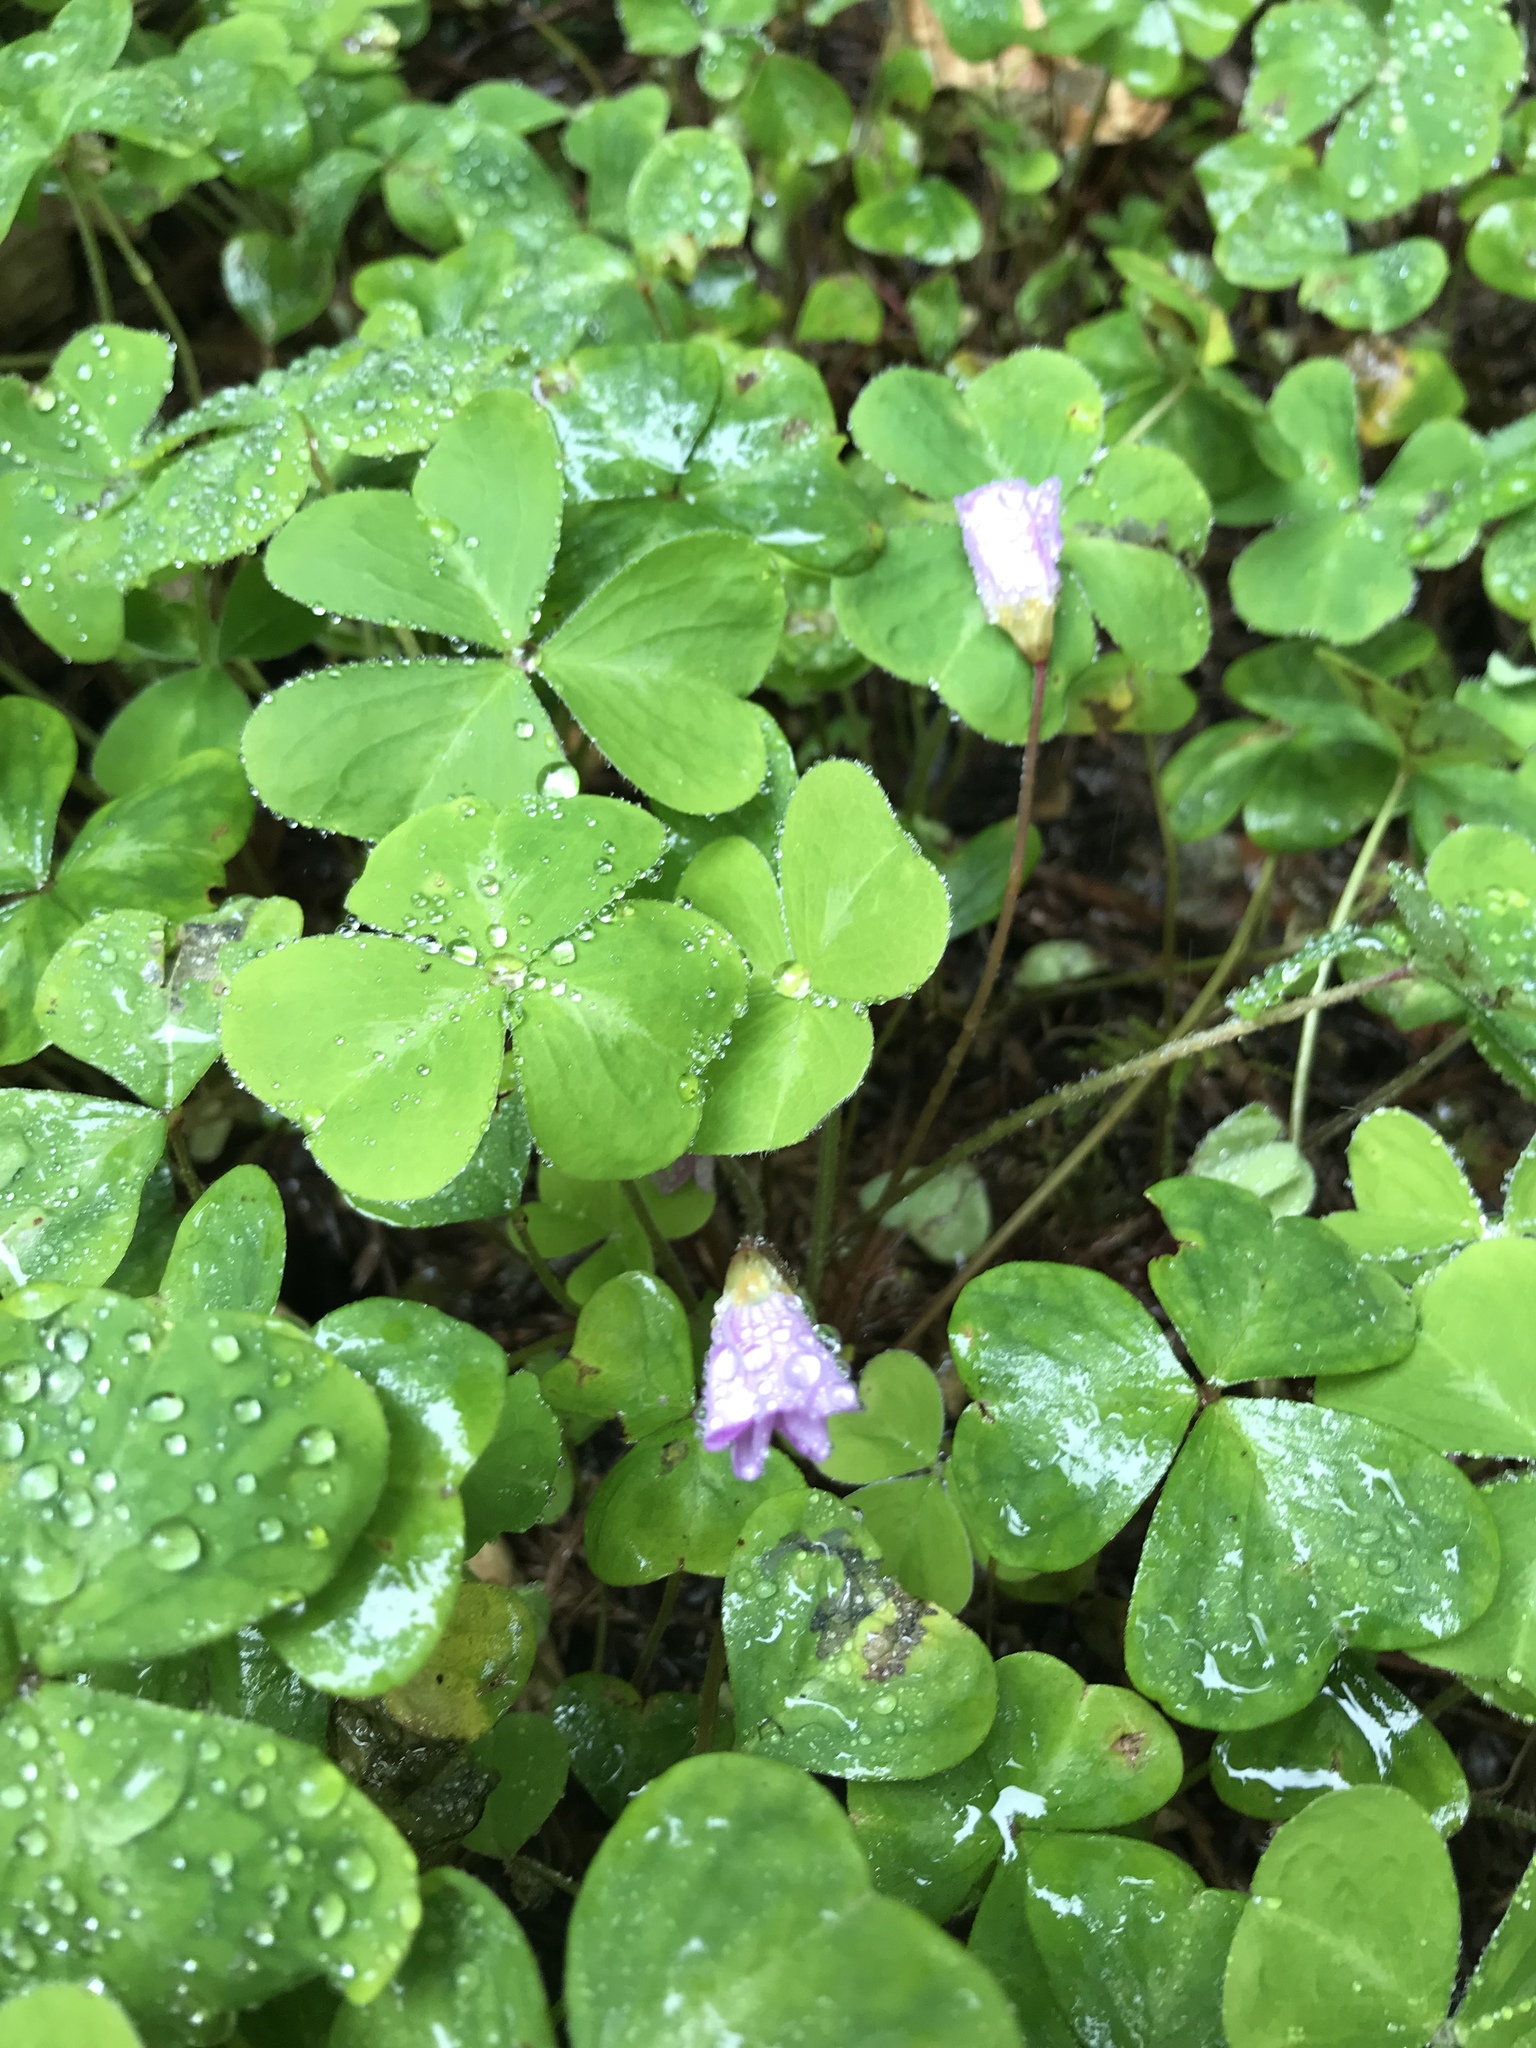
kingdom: Plantae
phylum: Tracheophyta
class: Magnoliopsida
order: Oxalidales
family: Oxalidaceae
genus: Oxalis
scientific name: Oxalis oregana
